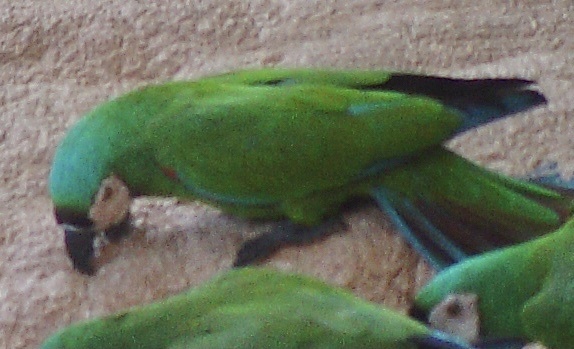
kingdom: Animalia
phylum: Chordata
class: Aves
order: Psittaciformes
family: Psittacidae
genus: Ara
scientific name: Ara severus
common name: Chestnut-fronted macaw
